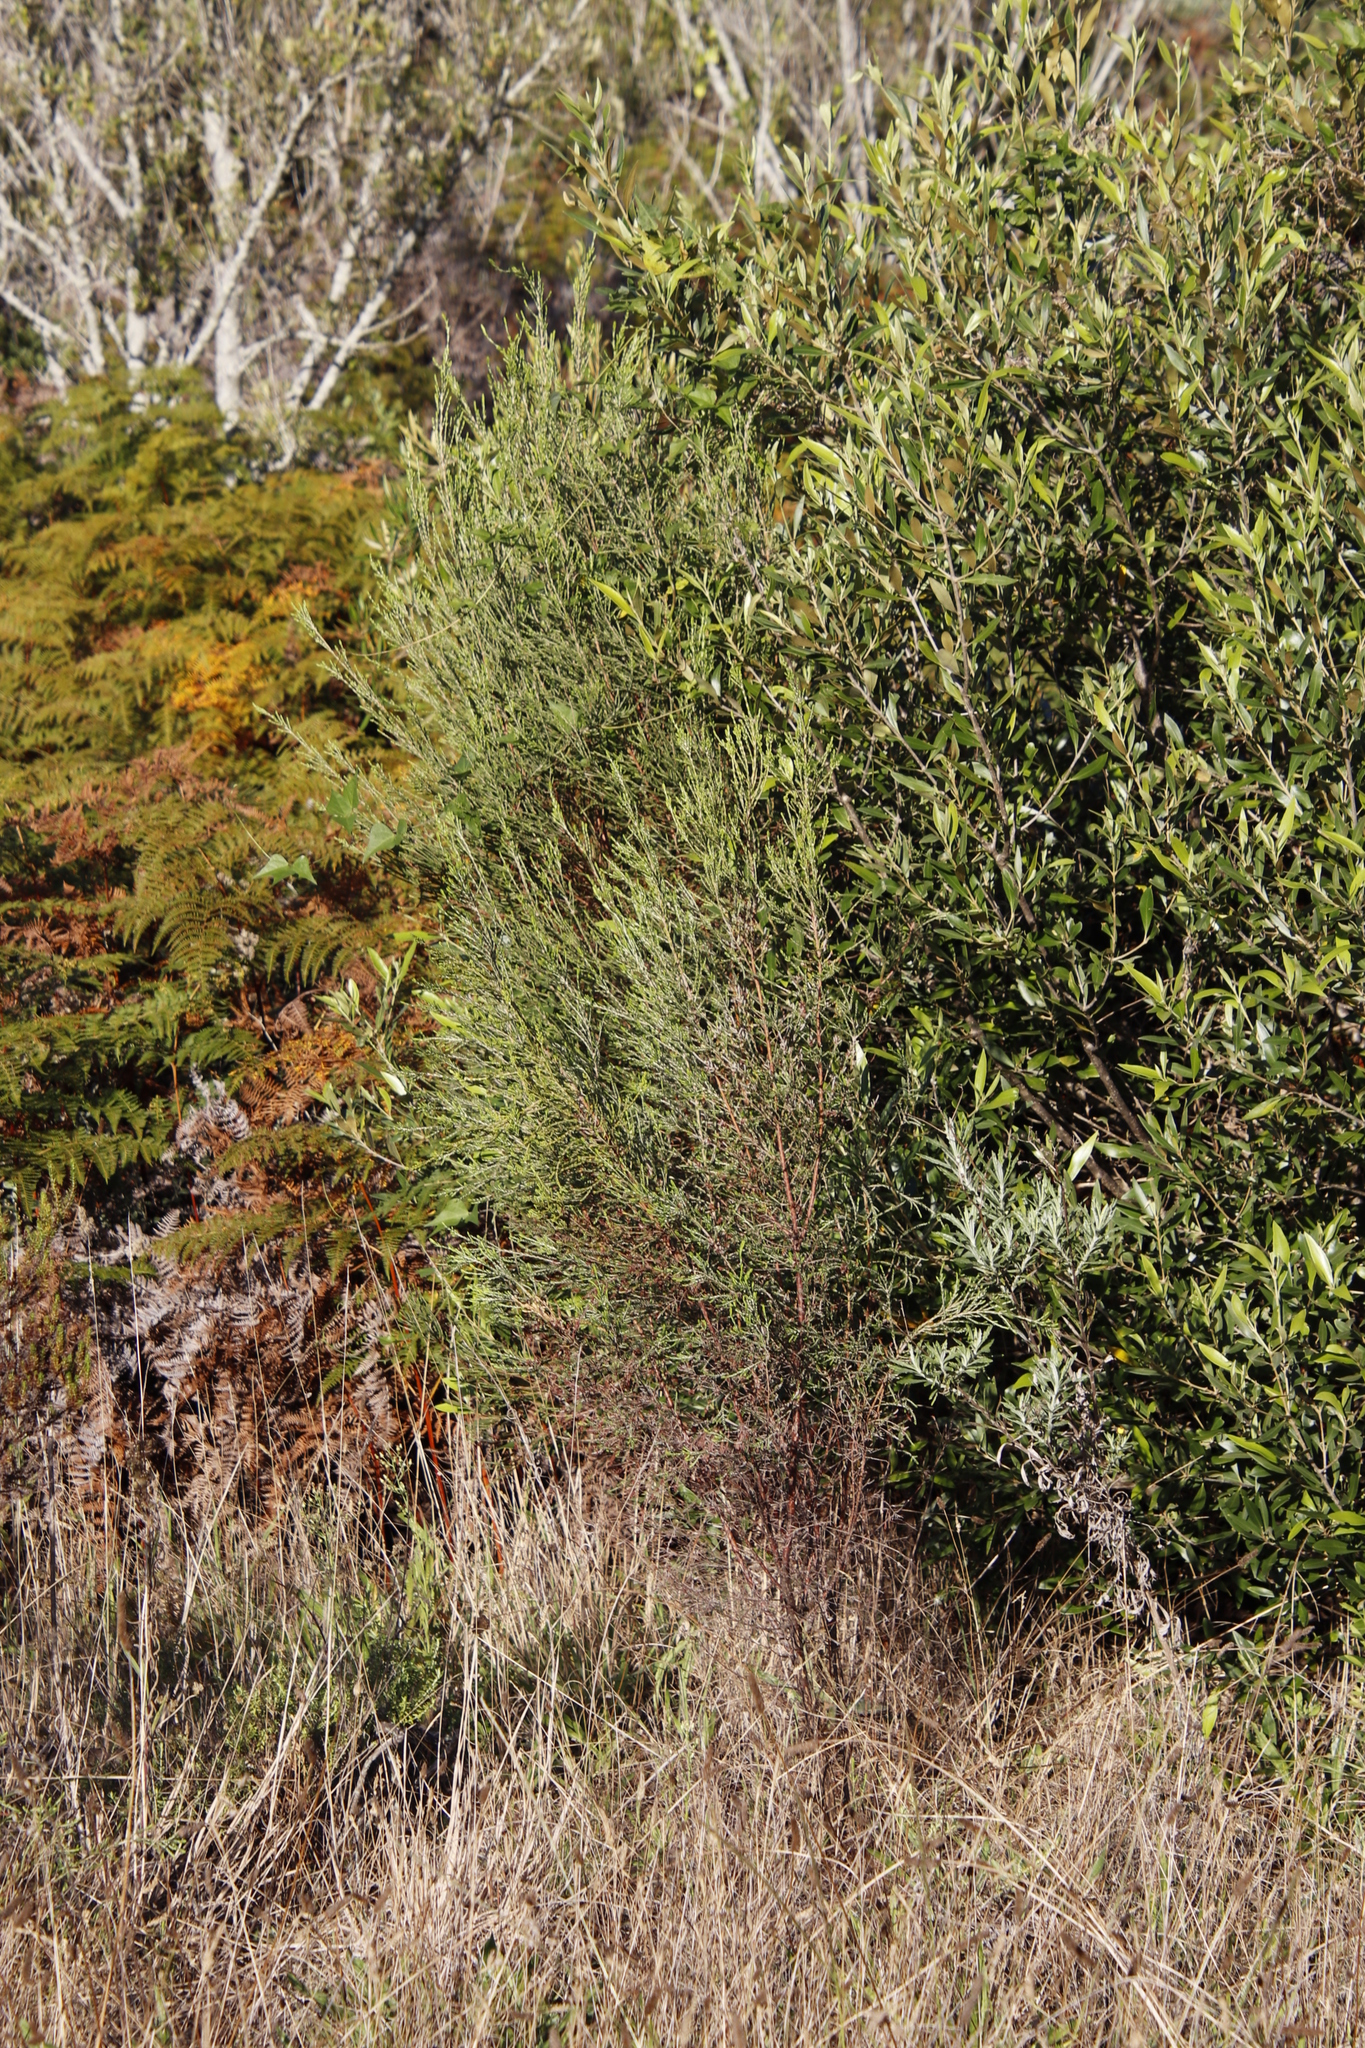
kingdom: Plantae
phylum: Tracheophyta
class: Magnoliopsida
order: Malvales
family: Thymelaeaceae
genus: Passerina
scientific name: Passerina corymbosa
